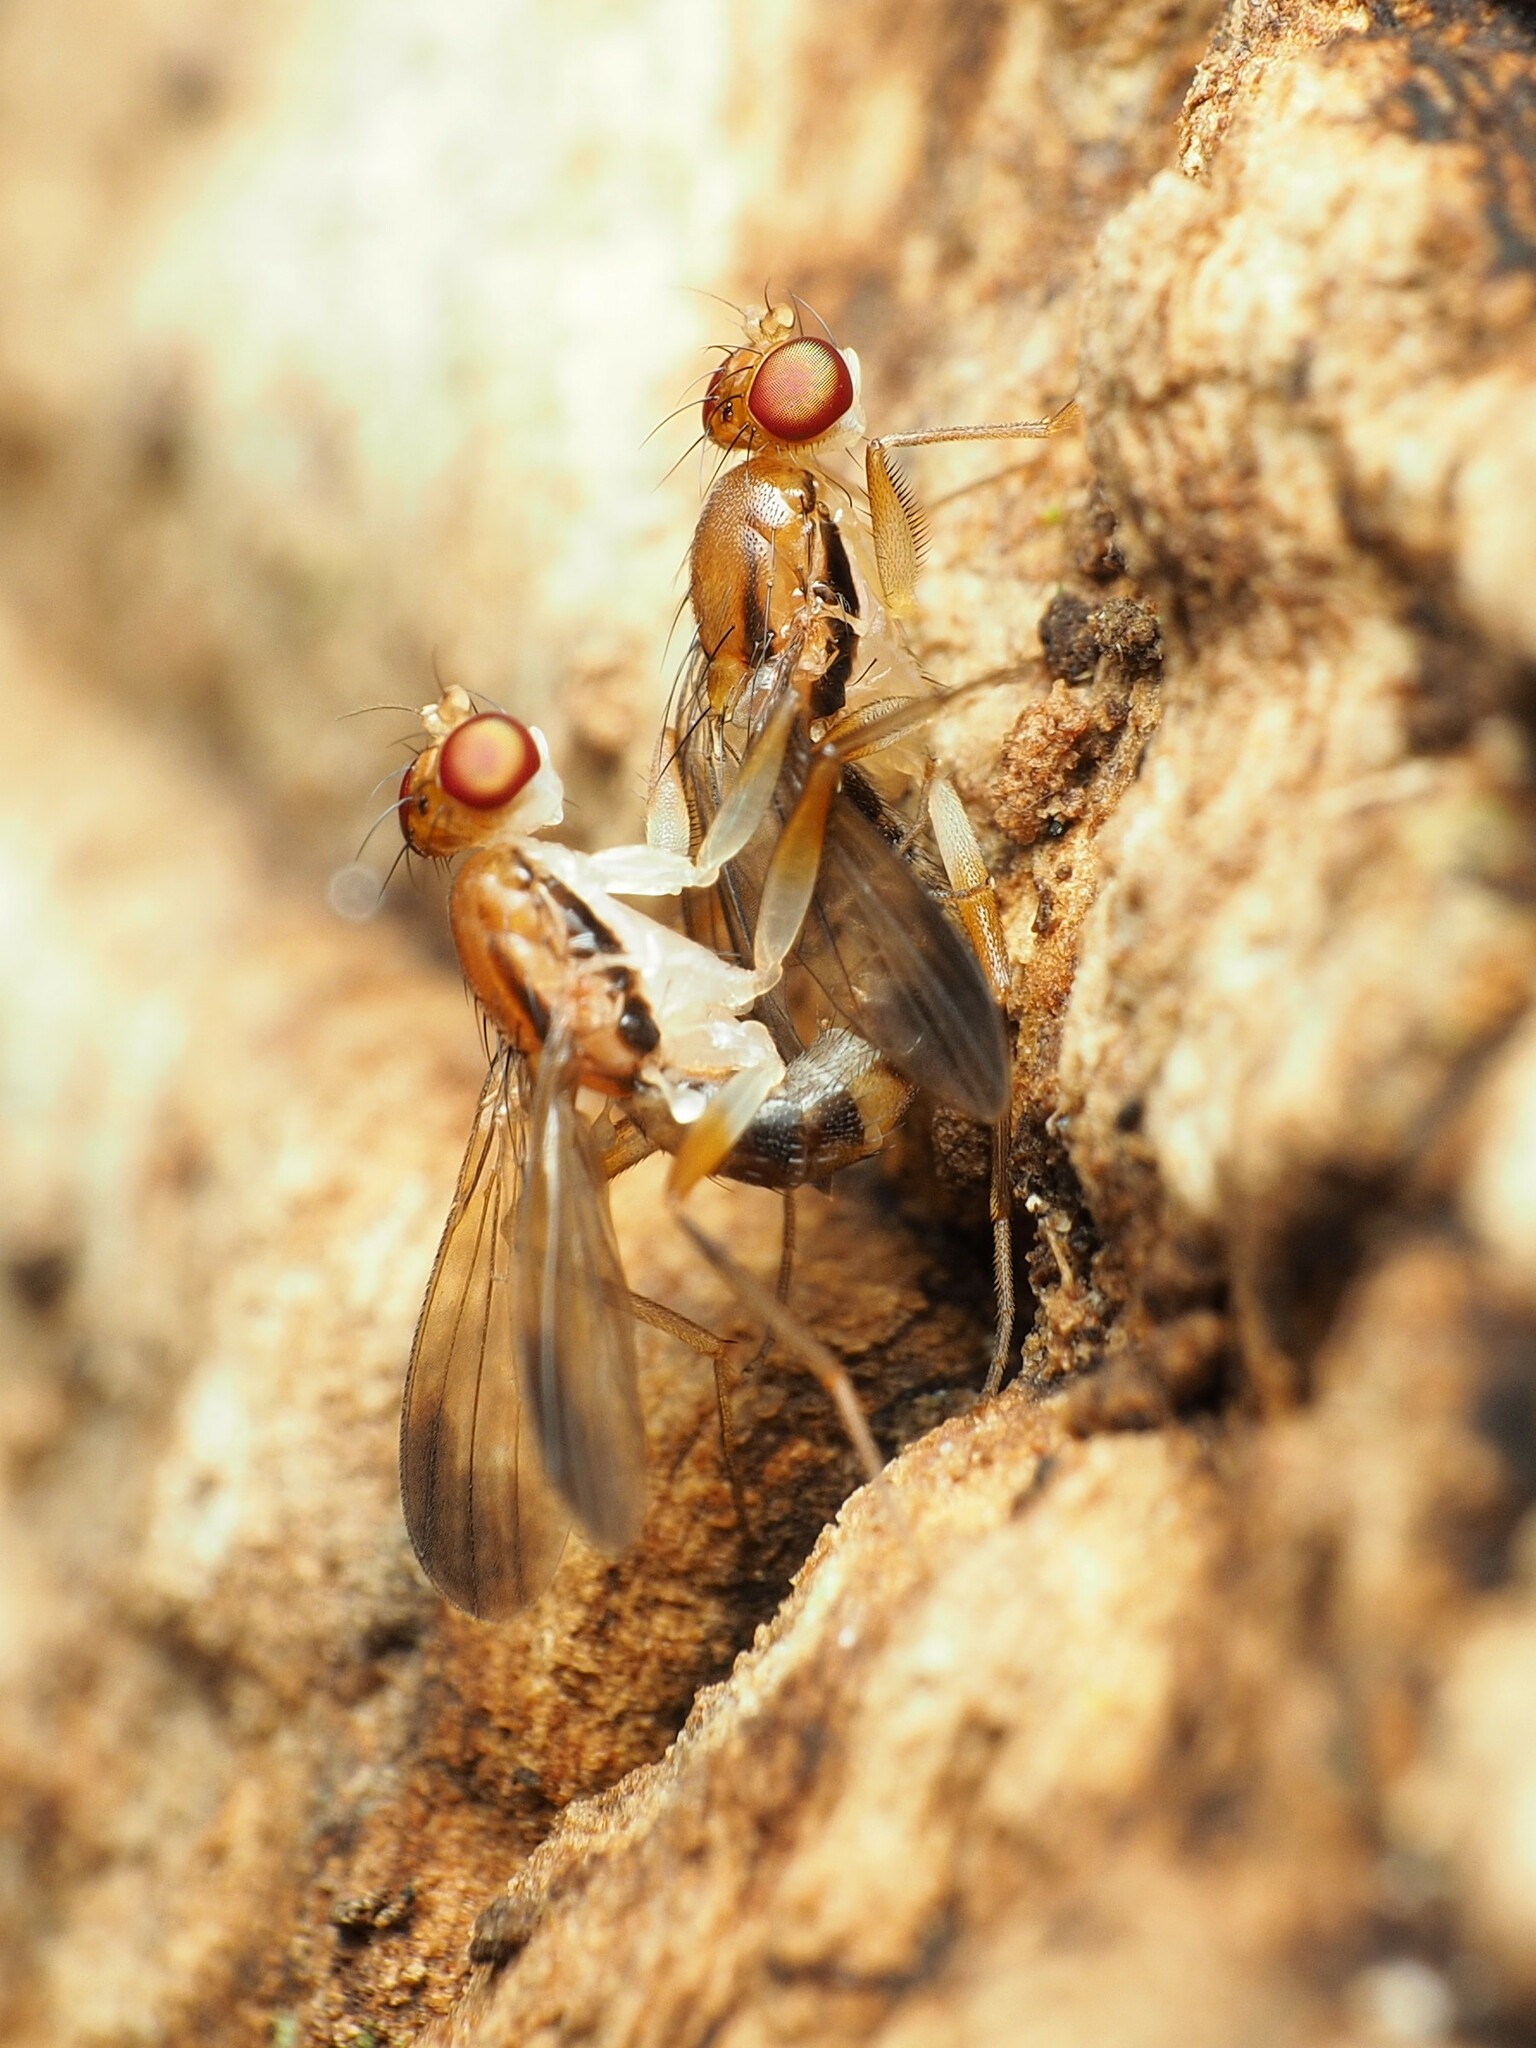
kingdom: Animalia
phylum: Arthropoda
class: Insecta
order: Diptera
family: Clusiidae
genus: Clusia
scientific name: Clusia lateralis
